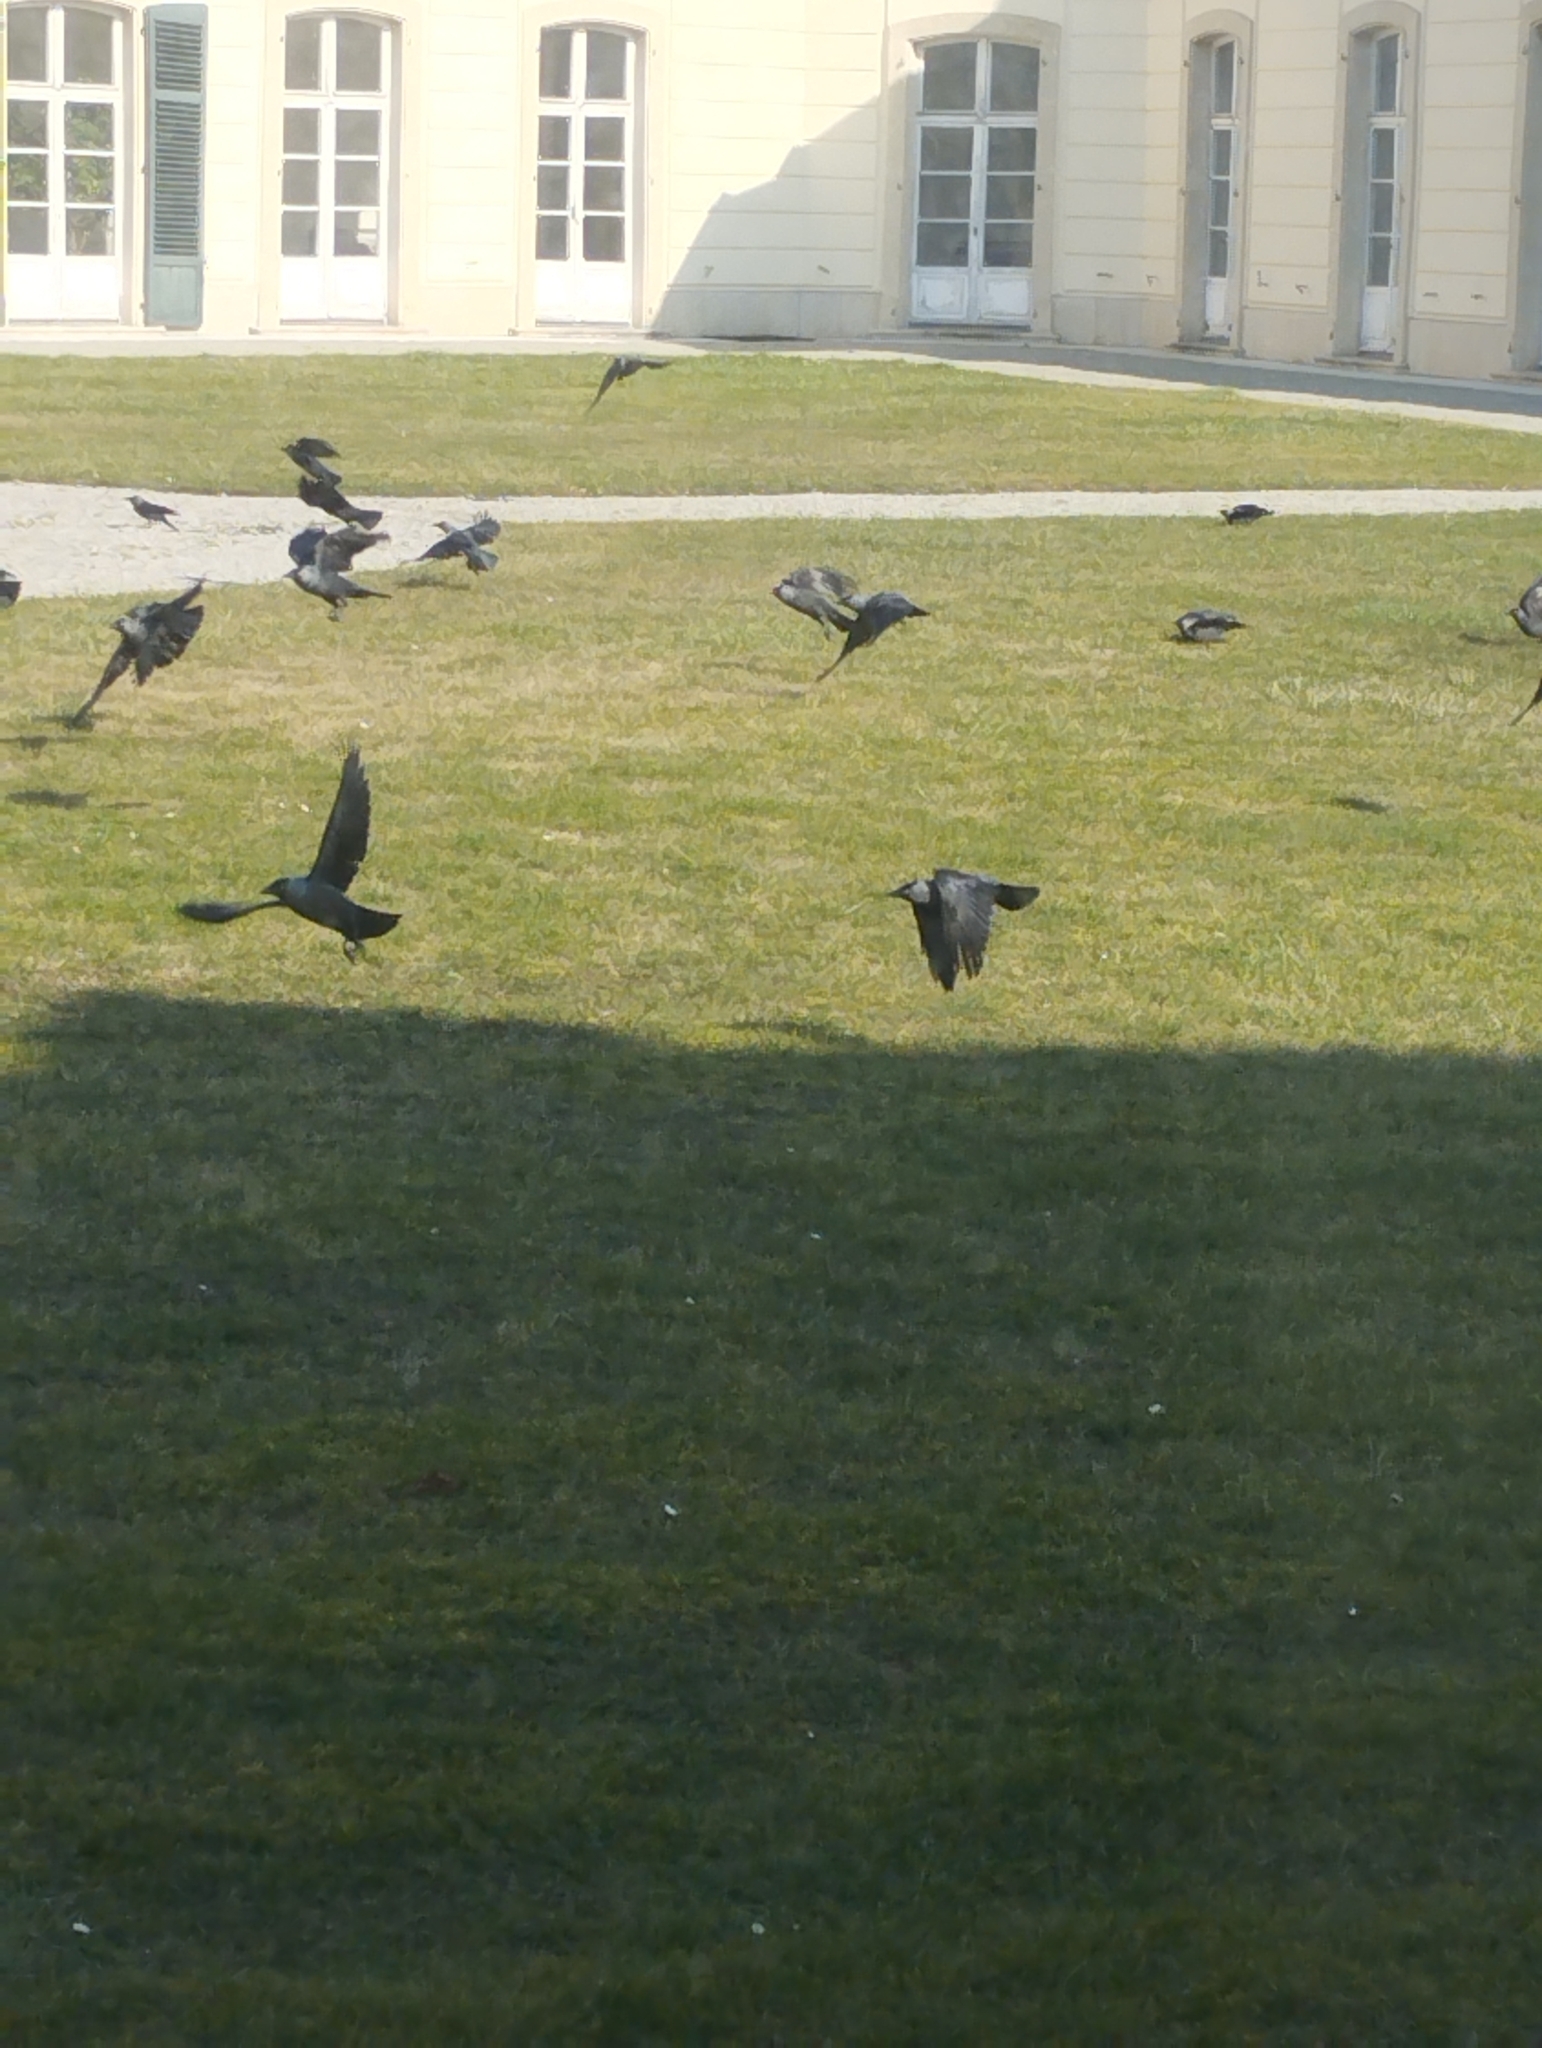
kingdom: Animalia
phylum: Chordata
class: Aves
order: Passeriformes
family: Corvidae
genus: Coloeus
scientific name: Coloeus monedula
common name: Western jackdaw
